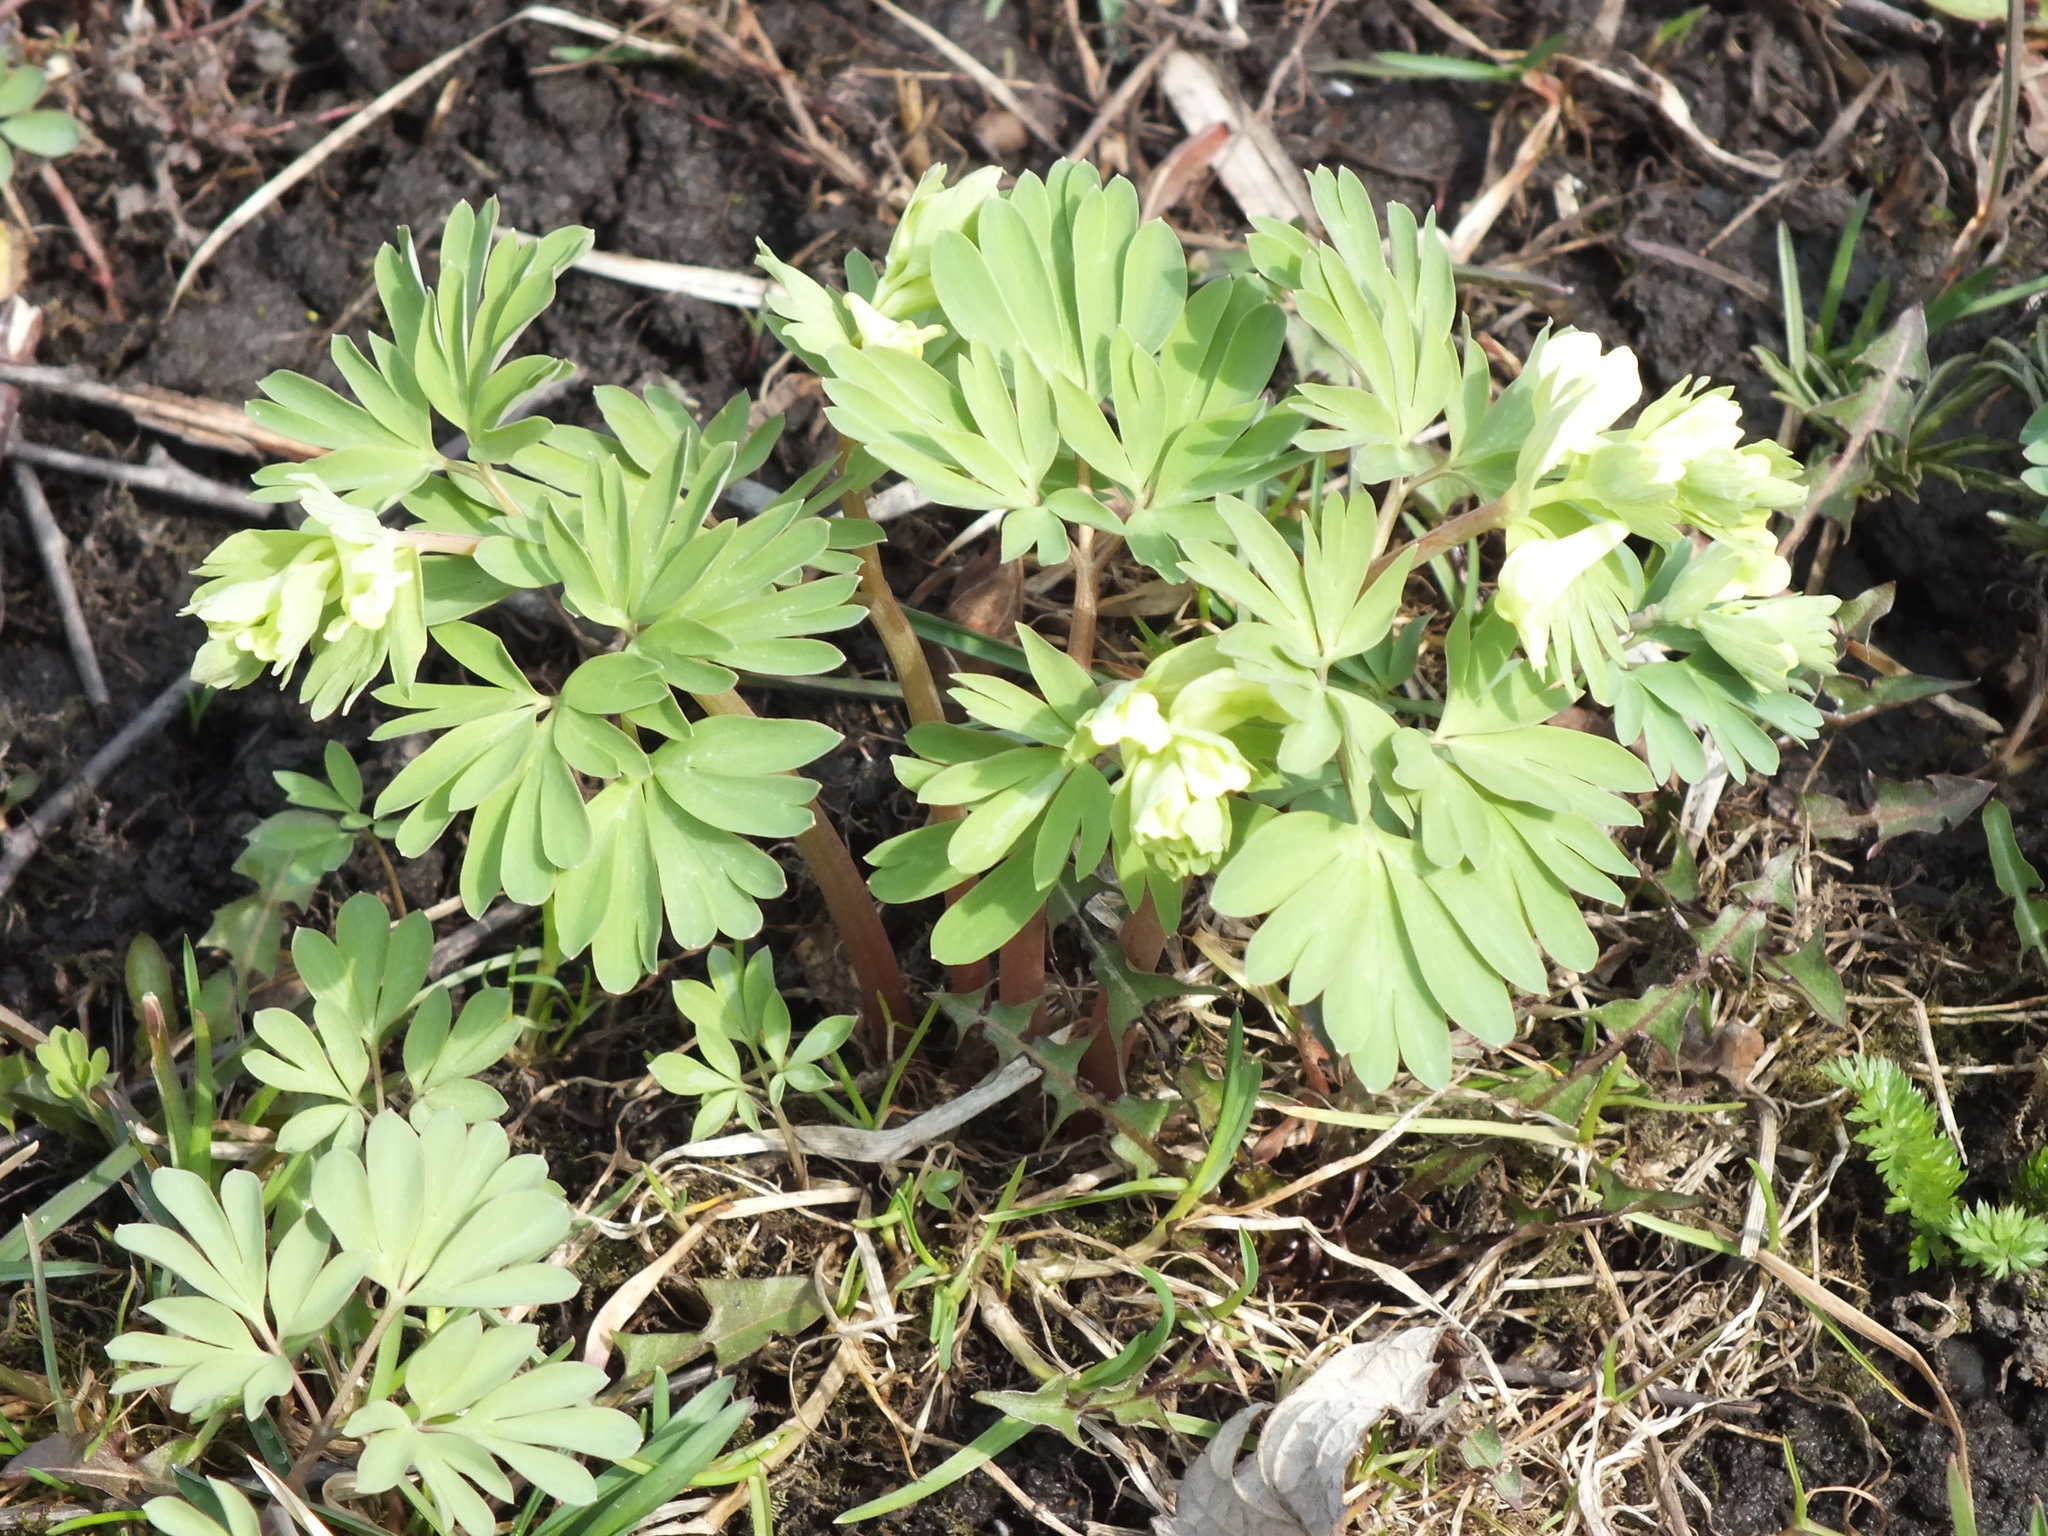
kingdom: Plantae
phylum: Tracheophyta
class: Magnoliopsida
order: Ranunculales
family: Papaveraceae
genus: Corydalis
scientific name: Corydalis bracteata
